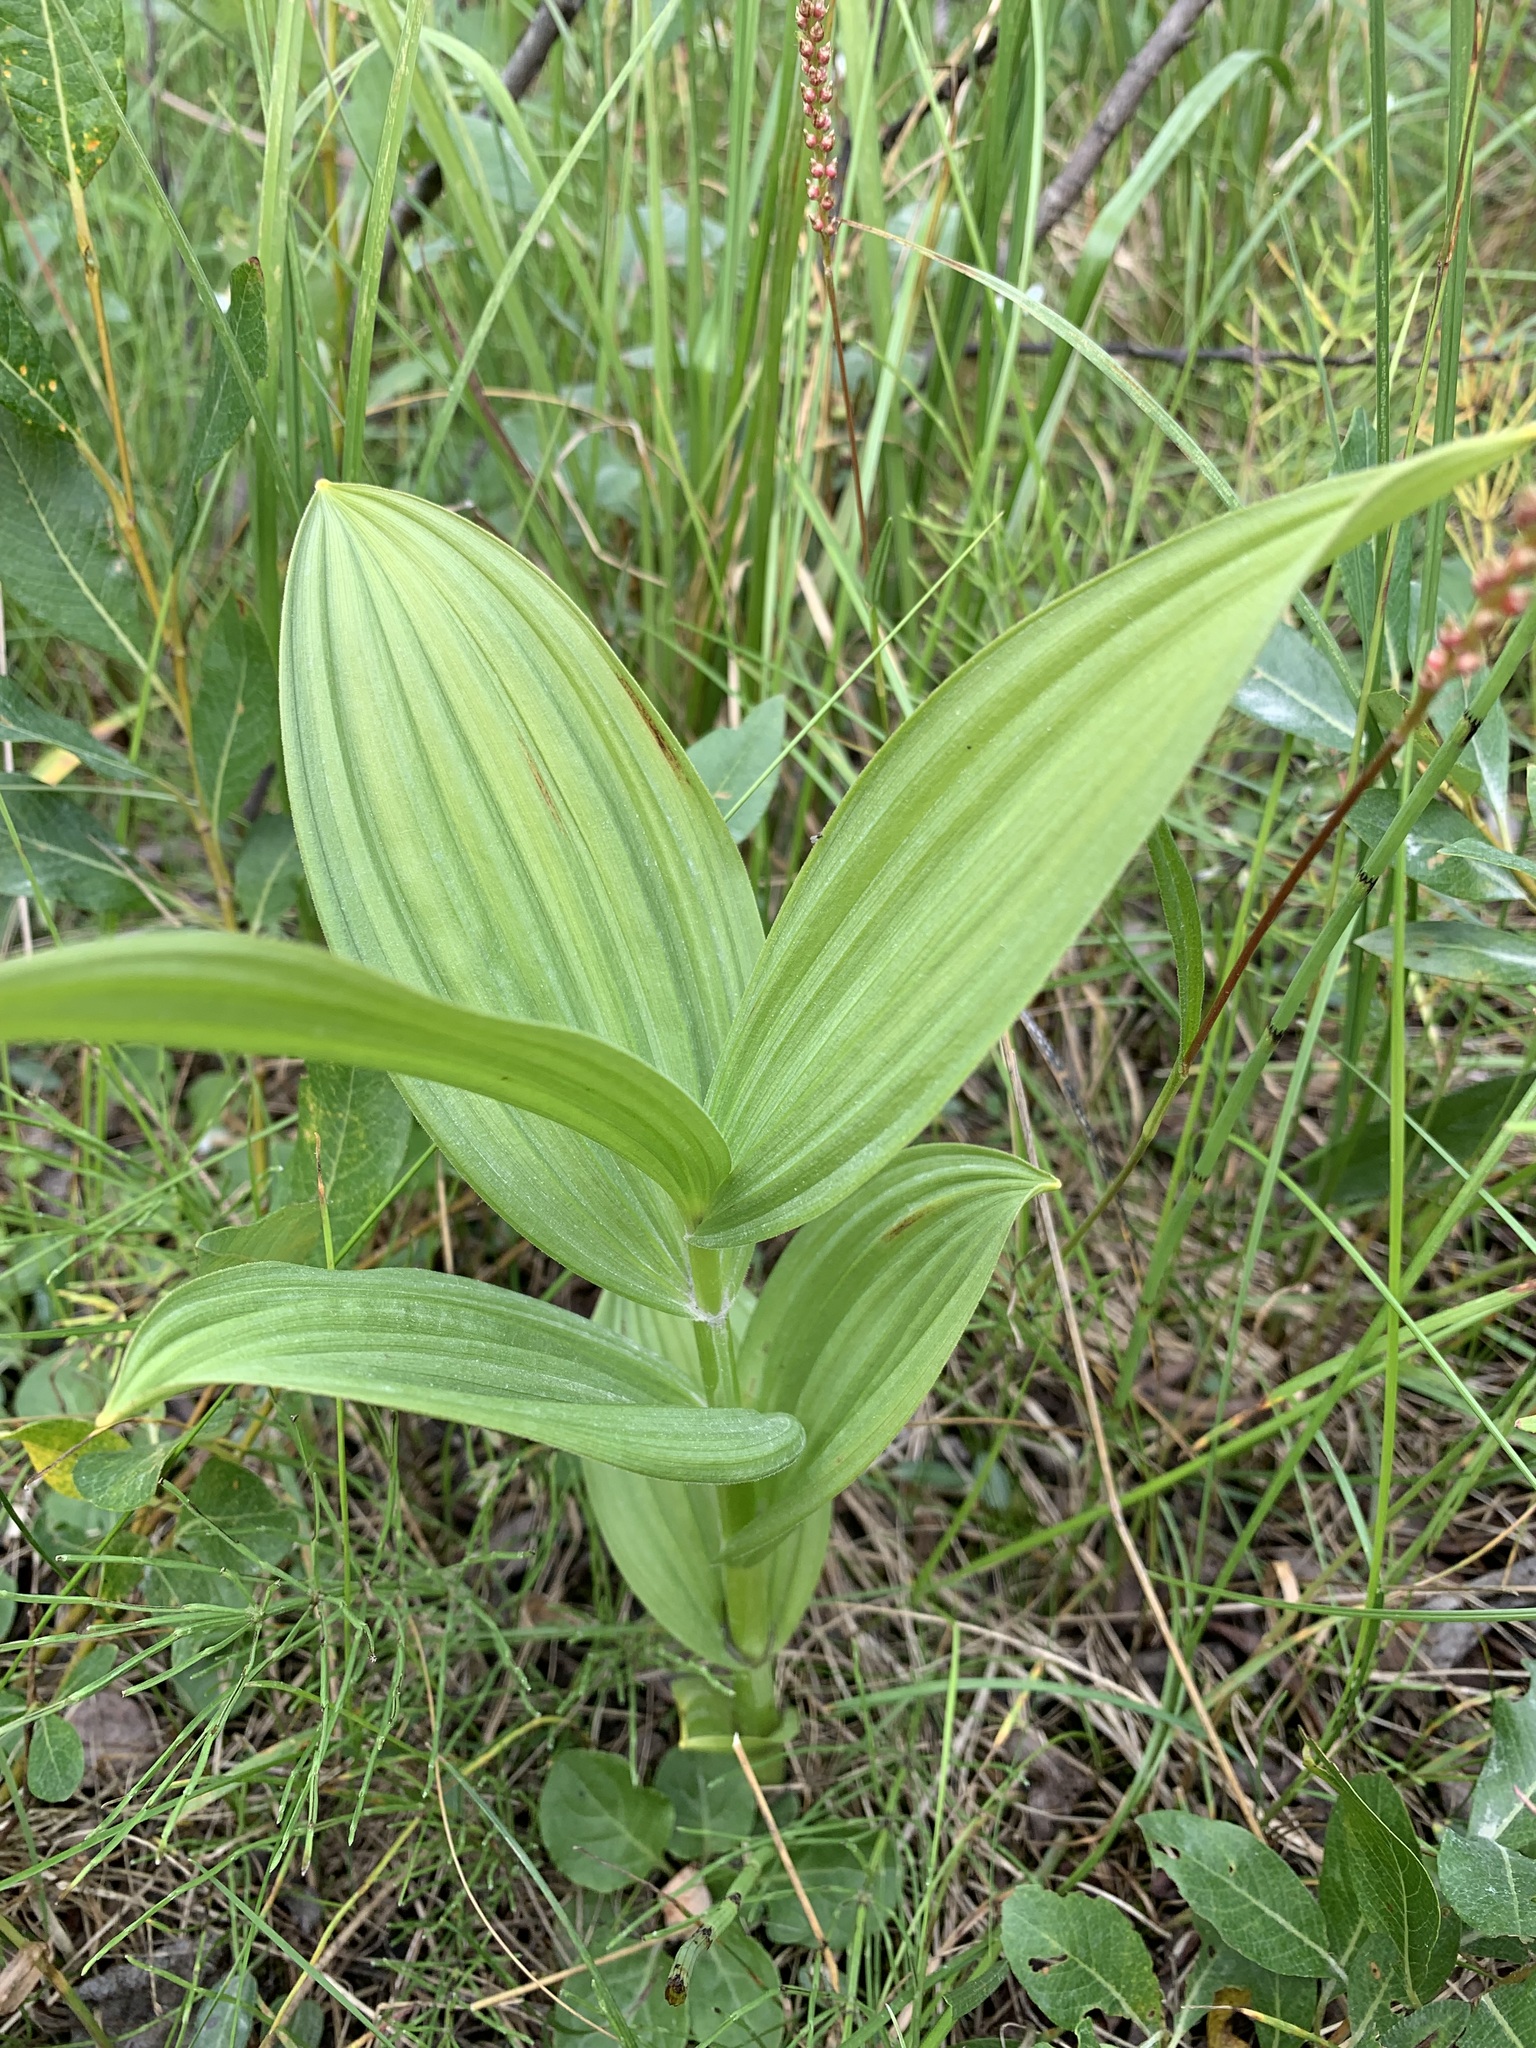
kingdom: Plantae
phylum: Tracheophyta
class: Liliopsida
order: Liliales
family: Melanthiaceae
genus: Veratrum
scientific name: Veratrum lobelianum
